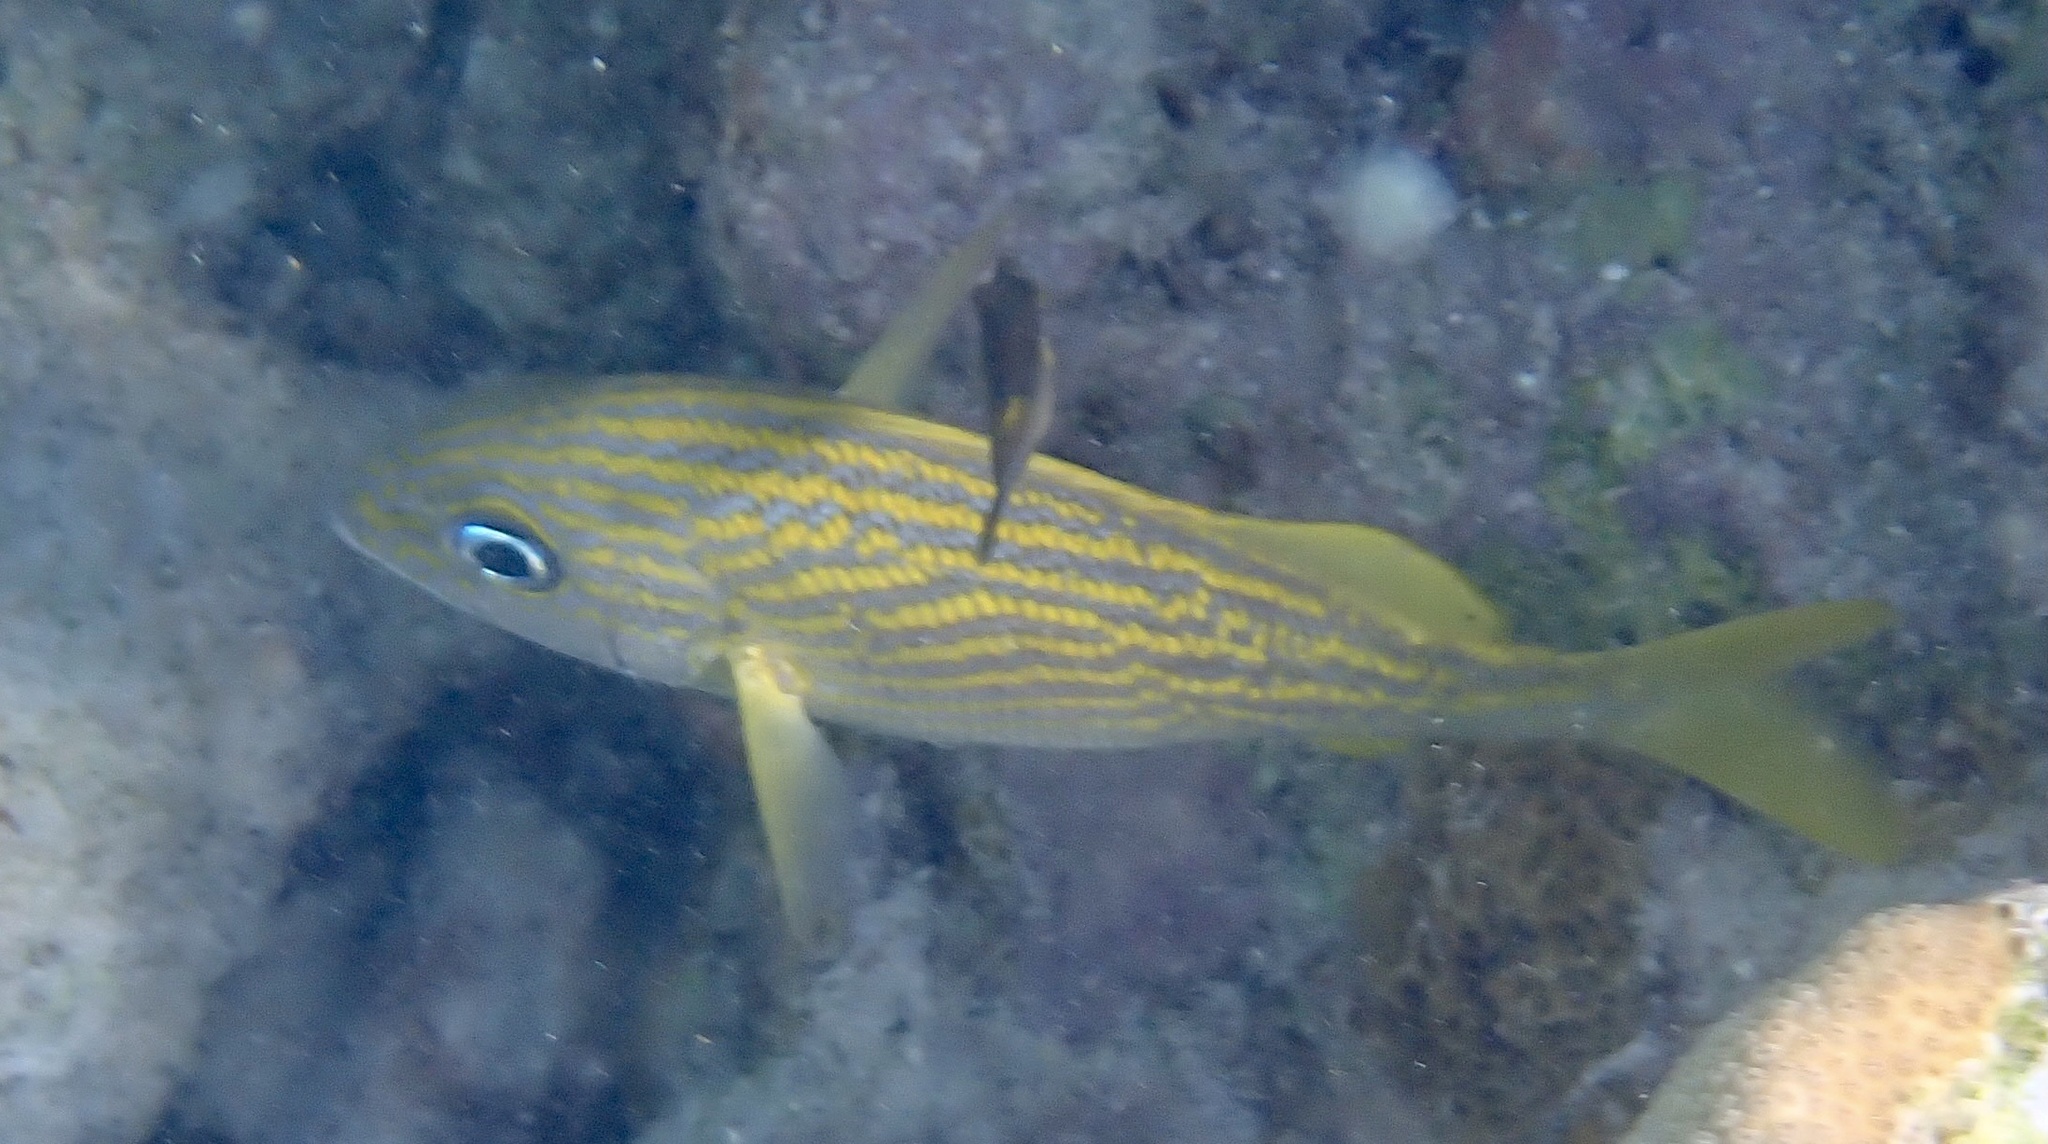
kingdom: Animalia
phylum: Chordata
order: Perciformes
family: Haemulidae
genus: Haemulon
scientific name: Haemulon flavolineatum
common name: French grunt
